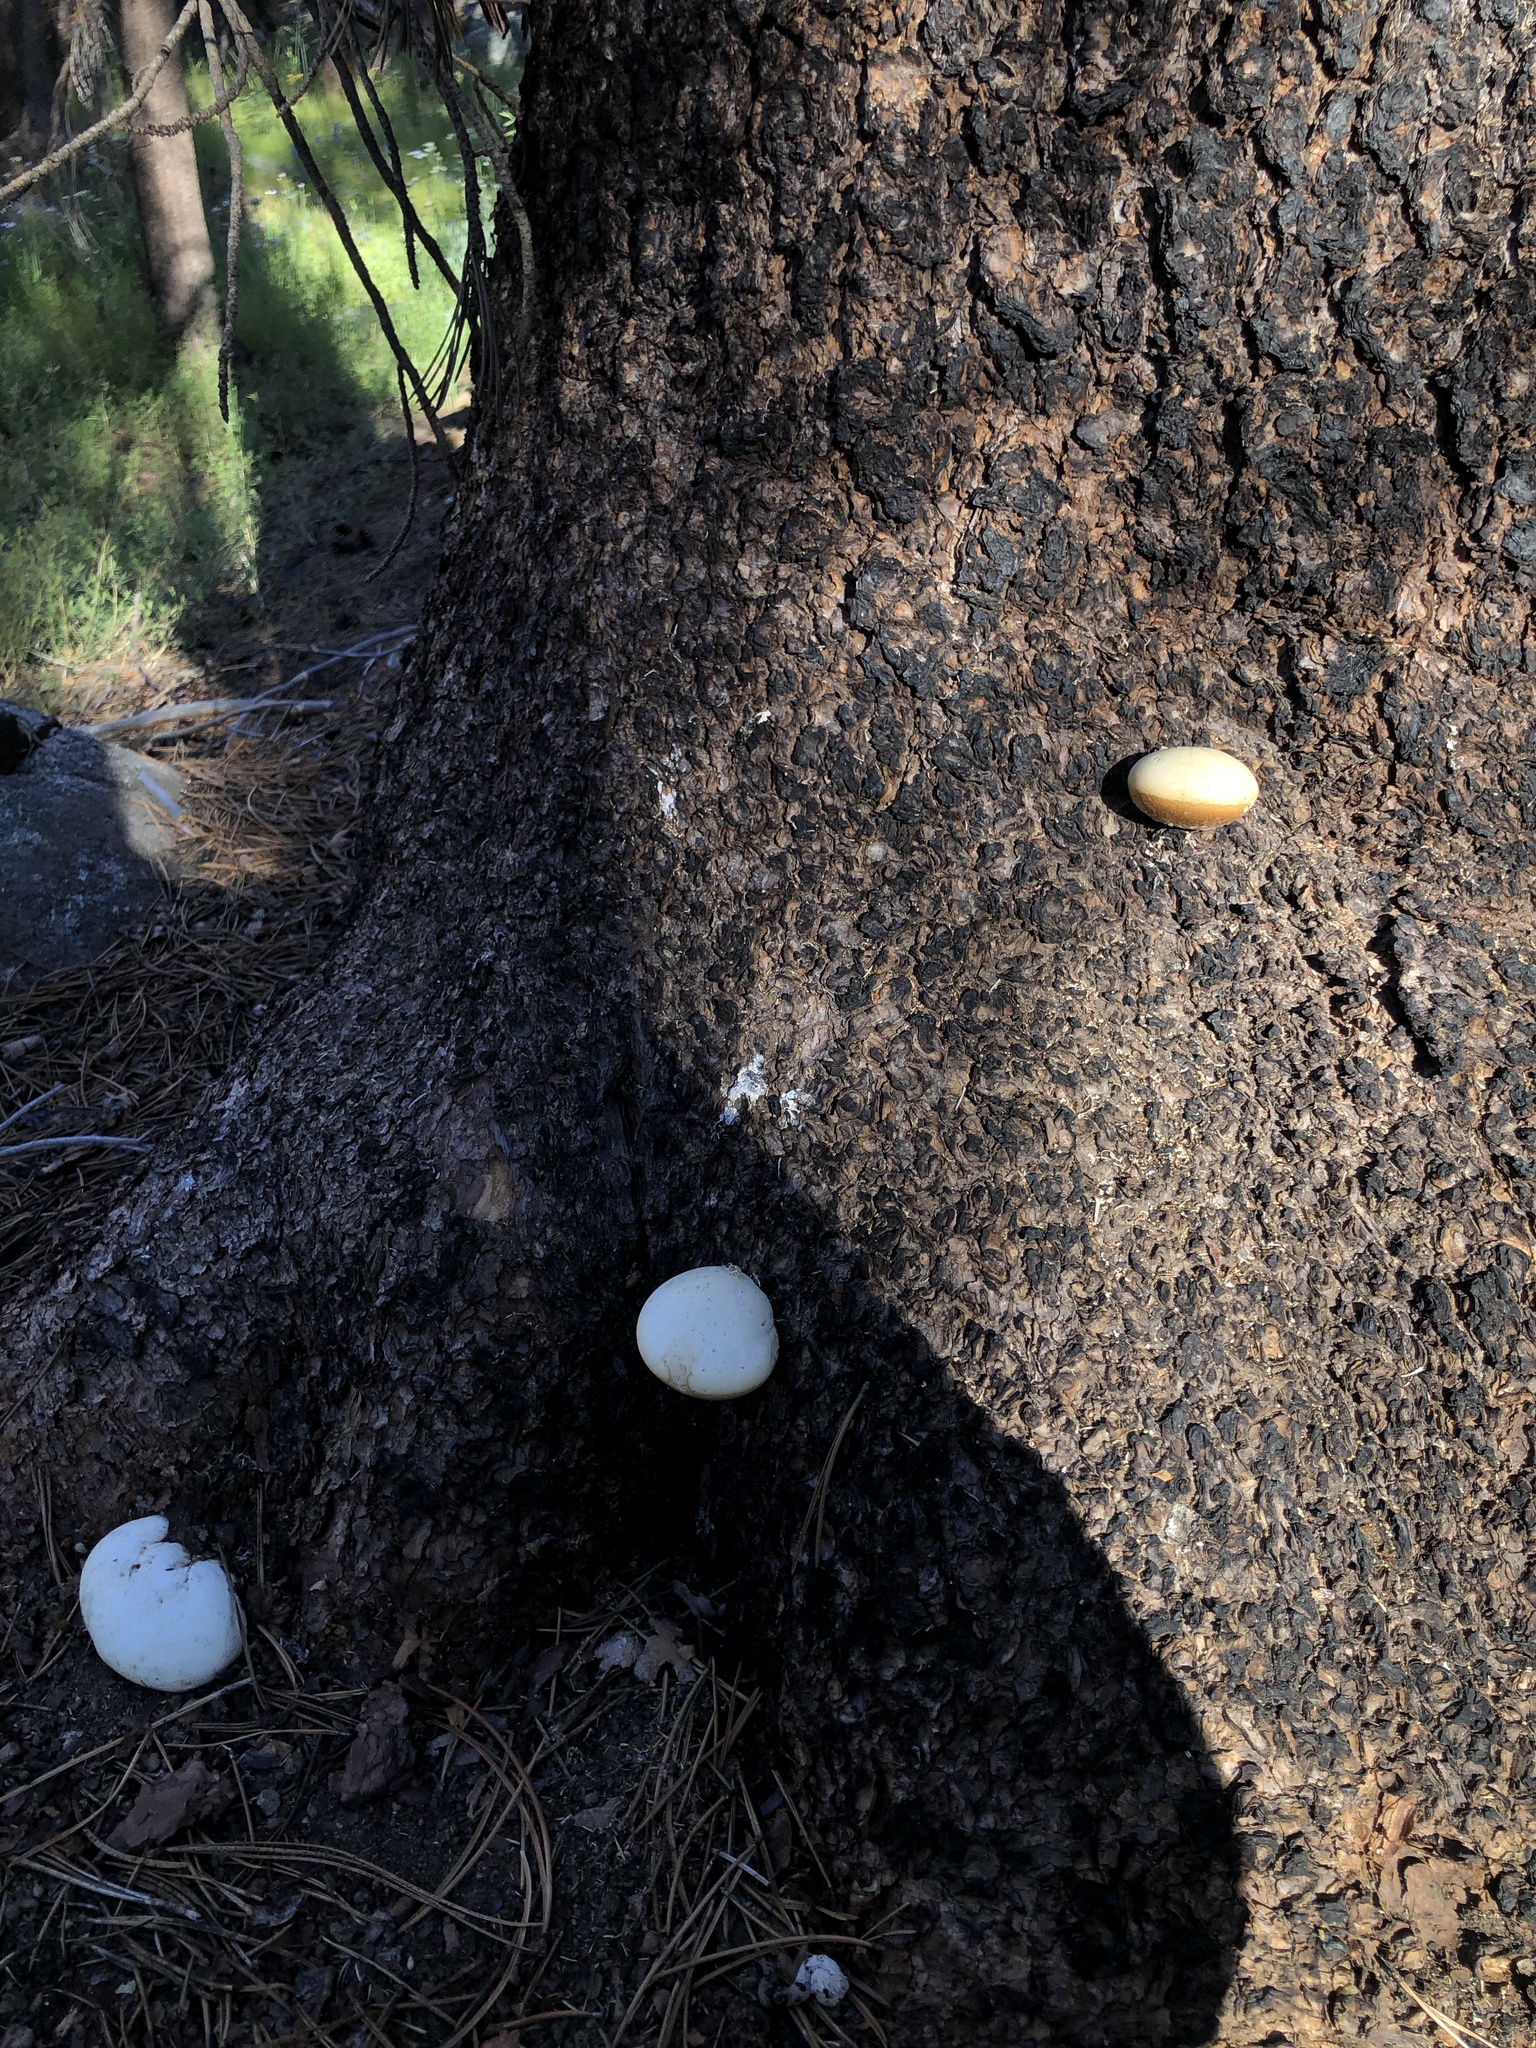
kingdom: Fungi
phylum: Basidiomycota
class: Agaricomycetes
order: Polyporales
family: Polyporaceae
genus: Cryptoporus
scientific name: Cryptoporus volvatus
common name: Veiled polypore
